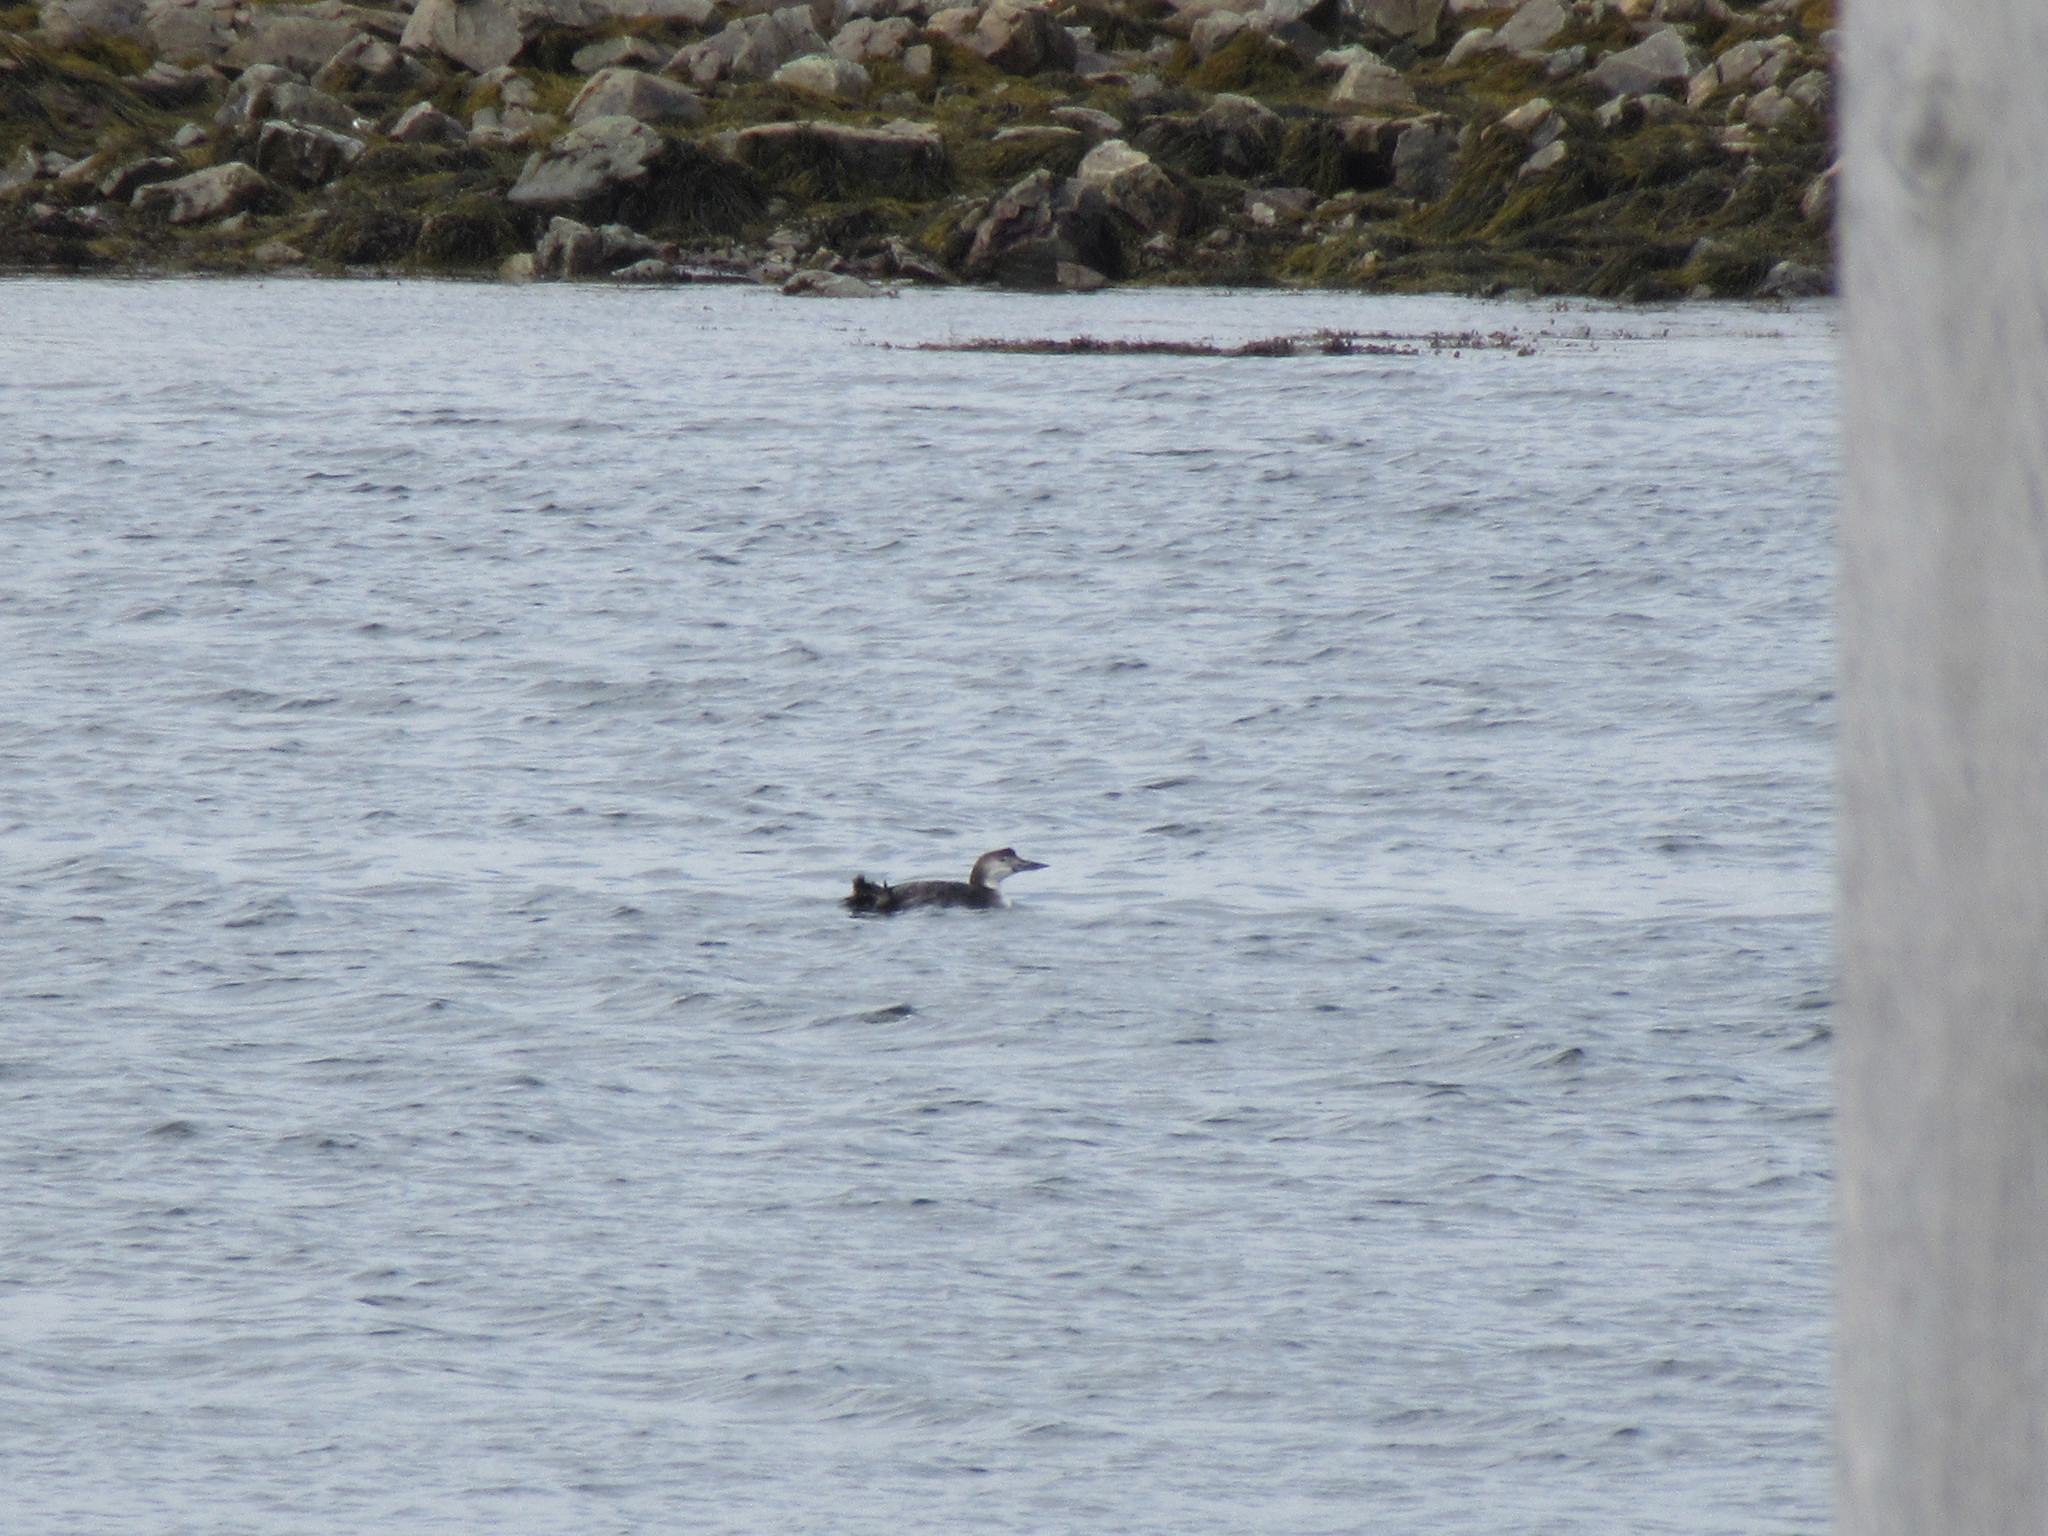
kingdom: Animalia
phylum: Chordata
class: Aves
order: Gaviiformes
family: Gaviidae
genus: Gavia
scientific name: Gavia immer
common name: Common loon
